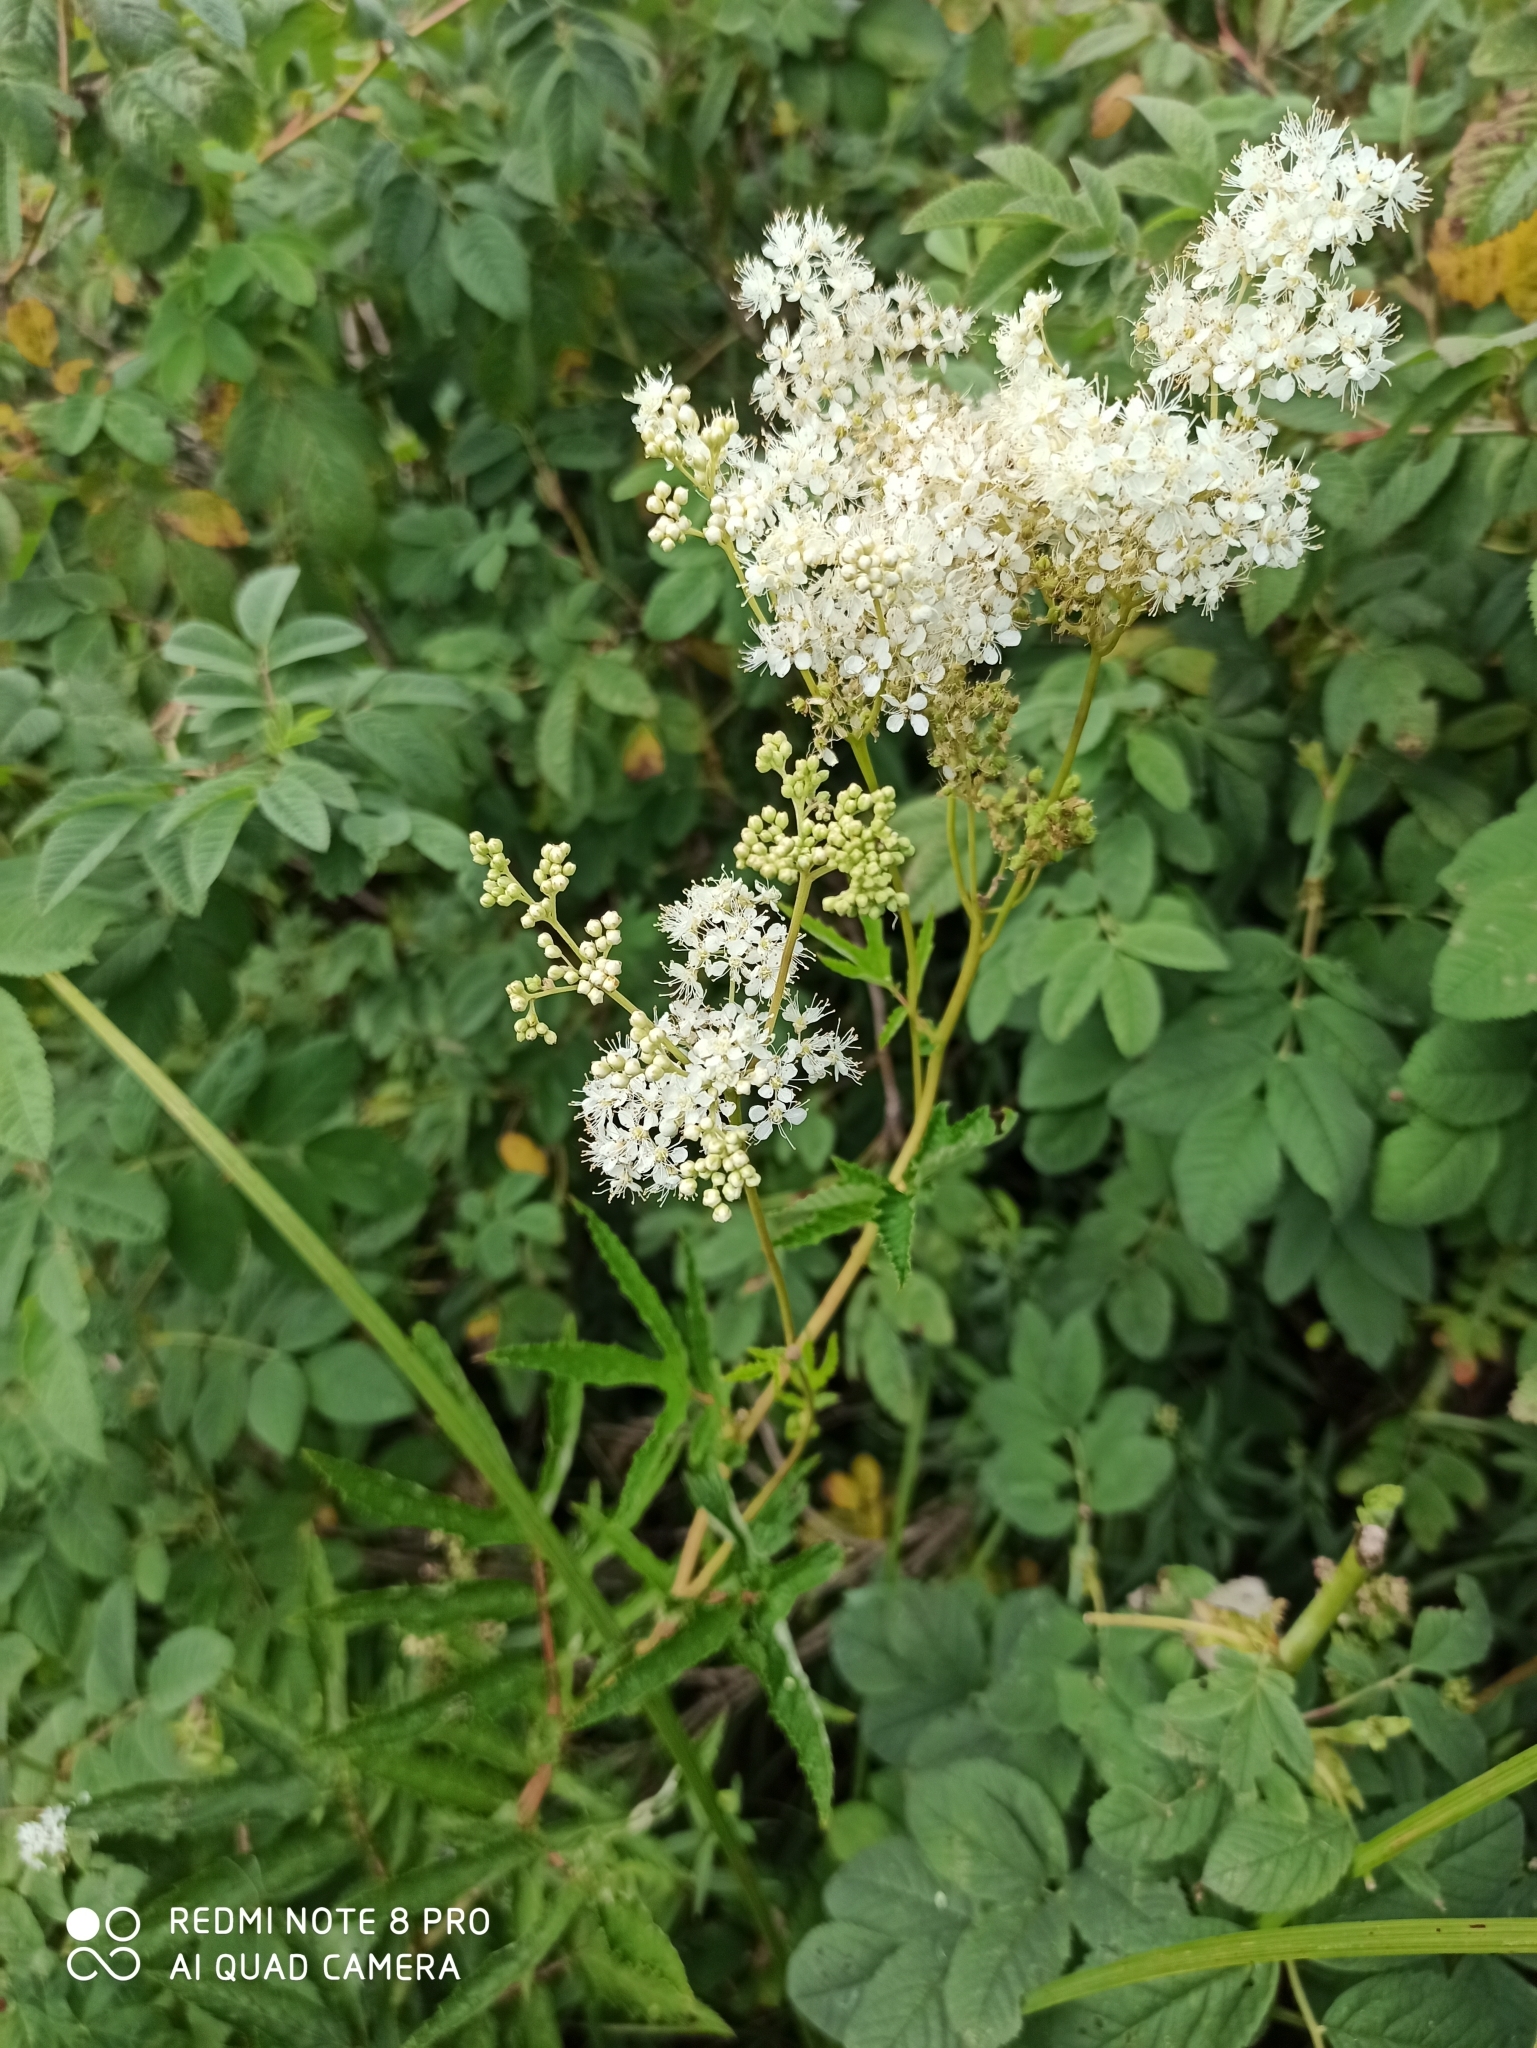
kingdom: Plantae
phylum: Tracheophyta
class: Magnoliopsida
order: Rosales
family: Rosaceae
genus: Filipendula
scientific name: Filipendula ulmaria
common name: Meadowsweet
